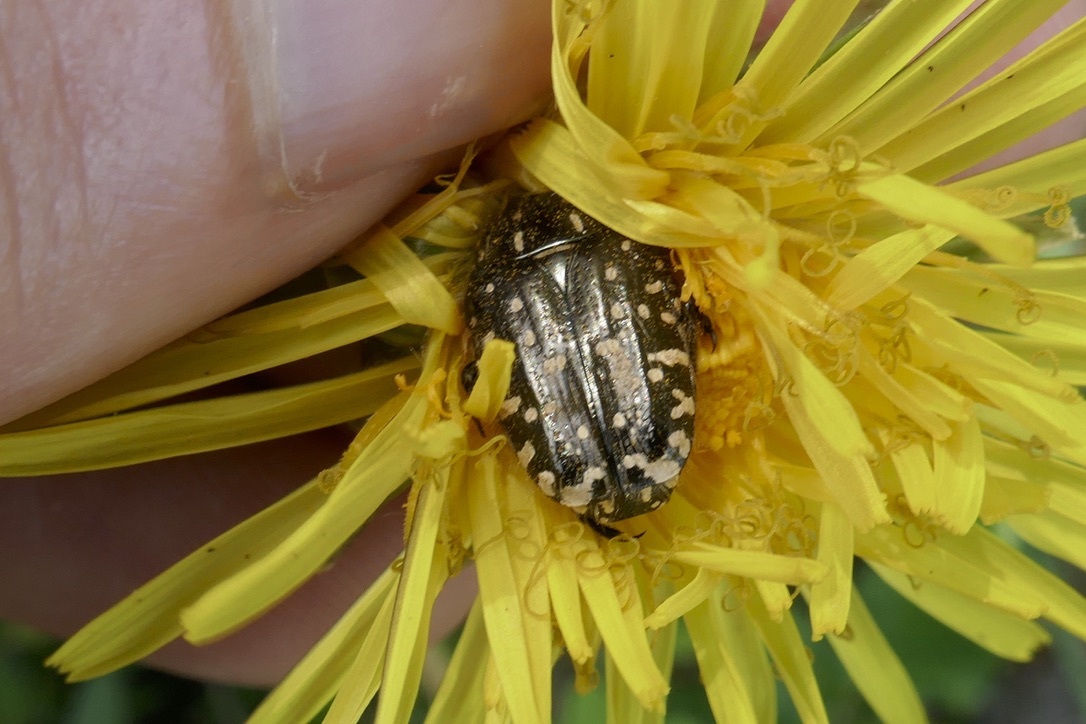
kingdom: Animalia
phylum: Arthropoda
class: Insecta
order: Coleoptera
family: Scarabaeidae
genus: Oxythyrea
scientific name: Oxythyrea funesta
